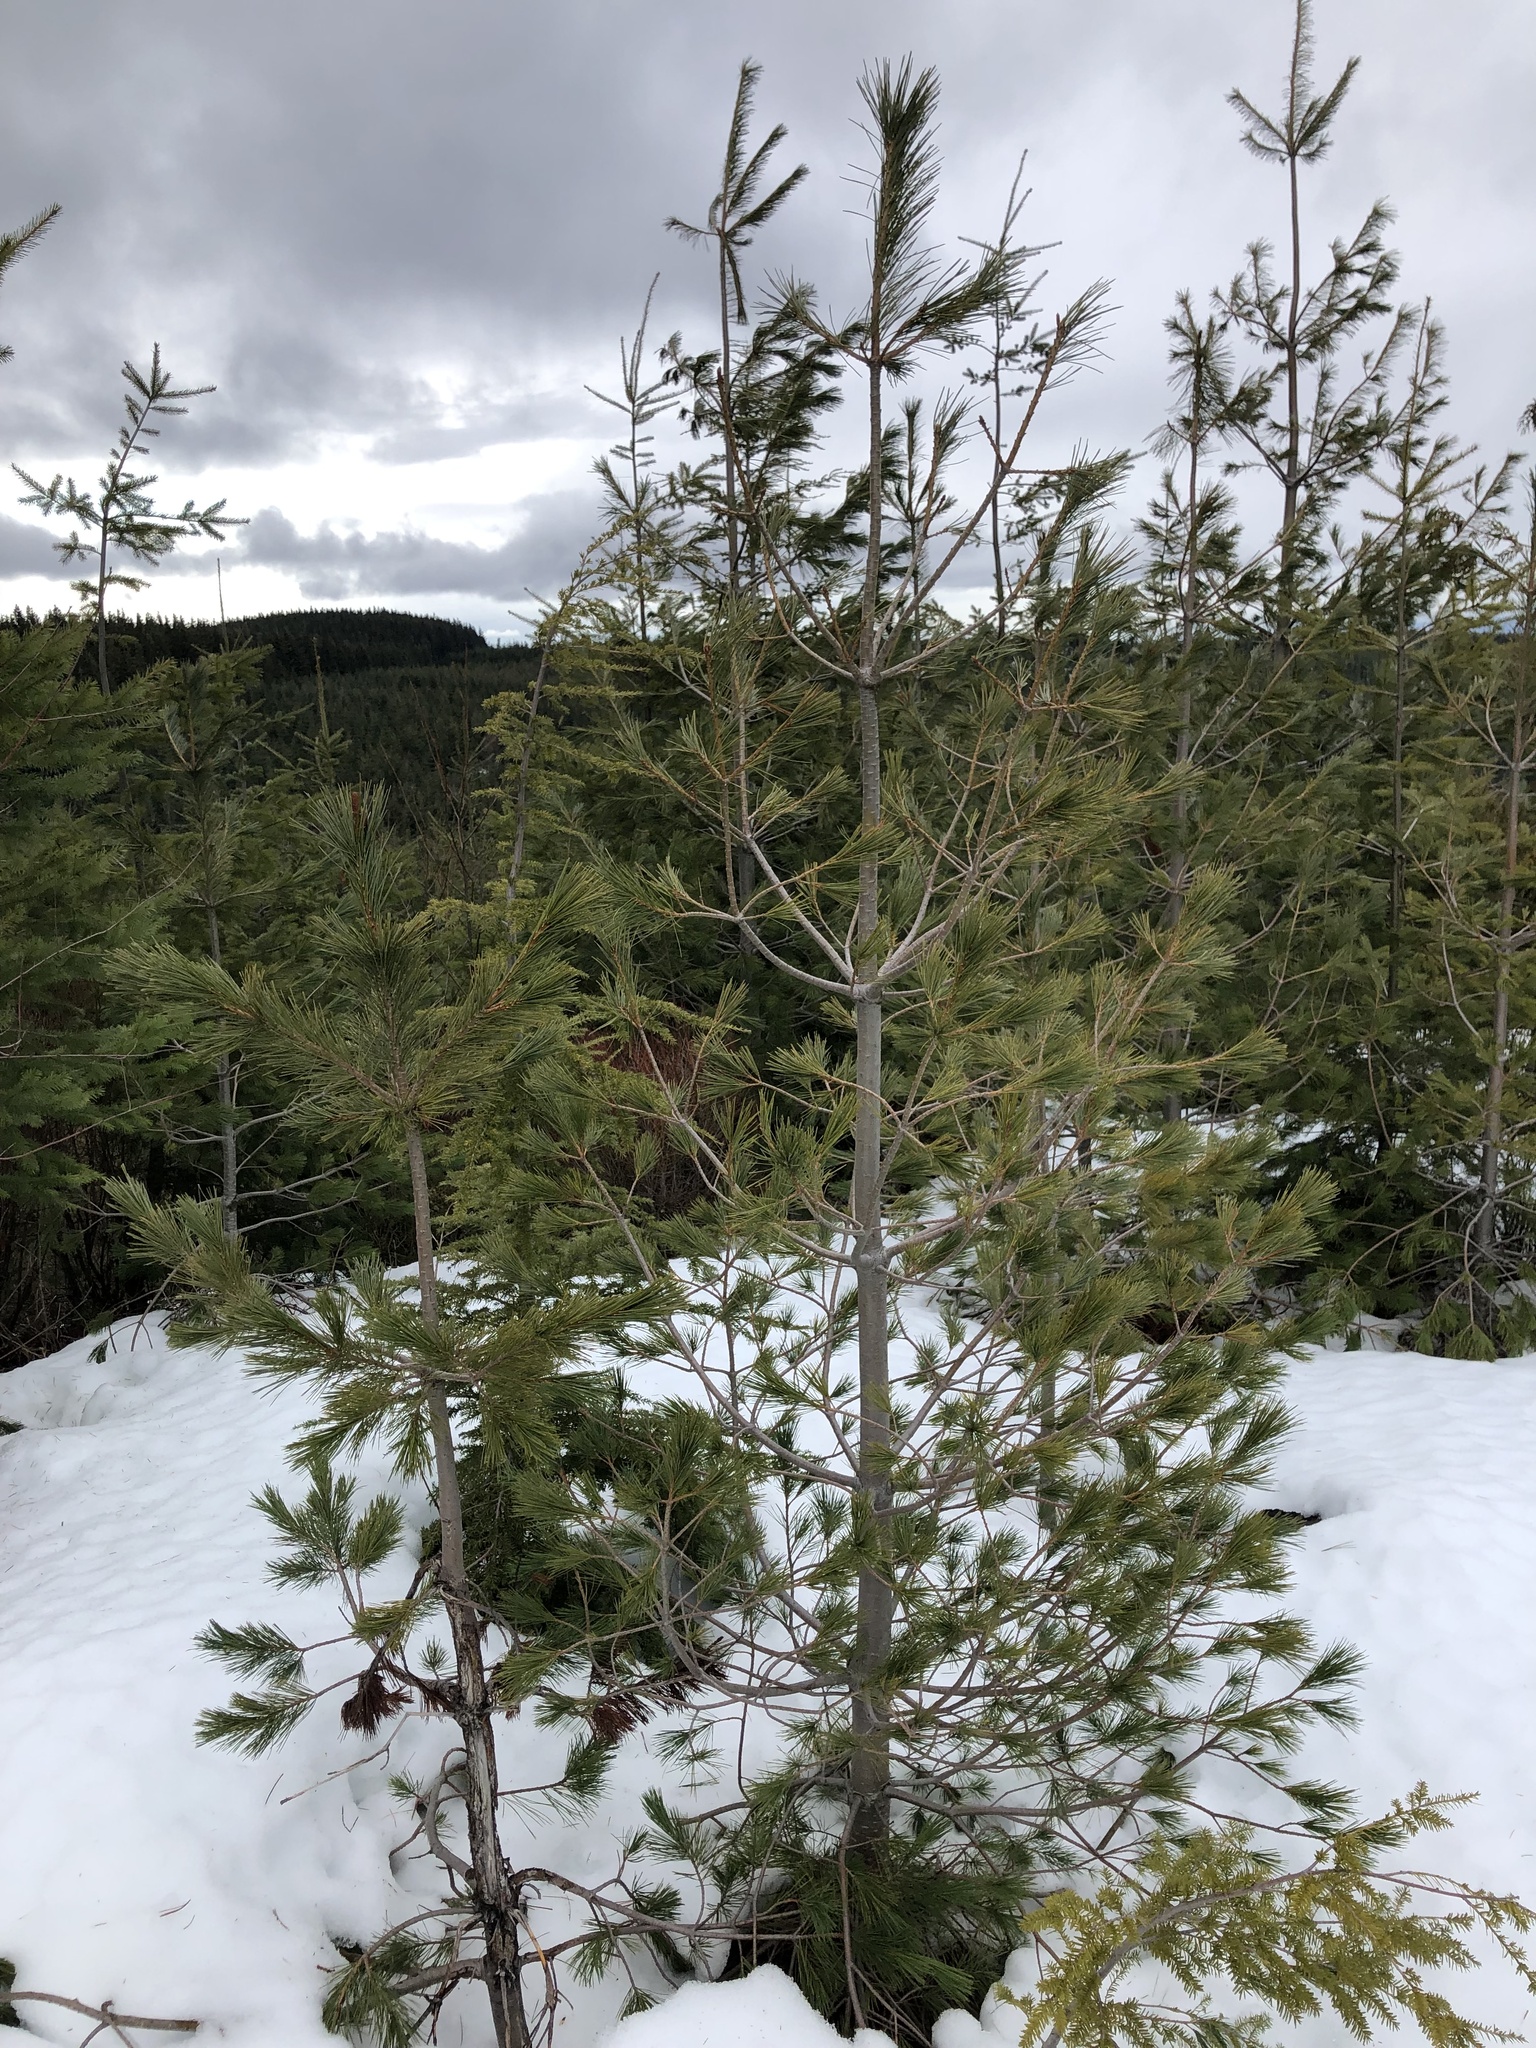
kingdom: Plantae
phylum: Tracheophyta
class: Pinopsida
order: Pinales
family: Pinaceae
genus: Pinus
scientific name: Pinus monticola
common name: Western white pine
